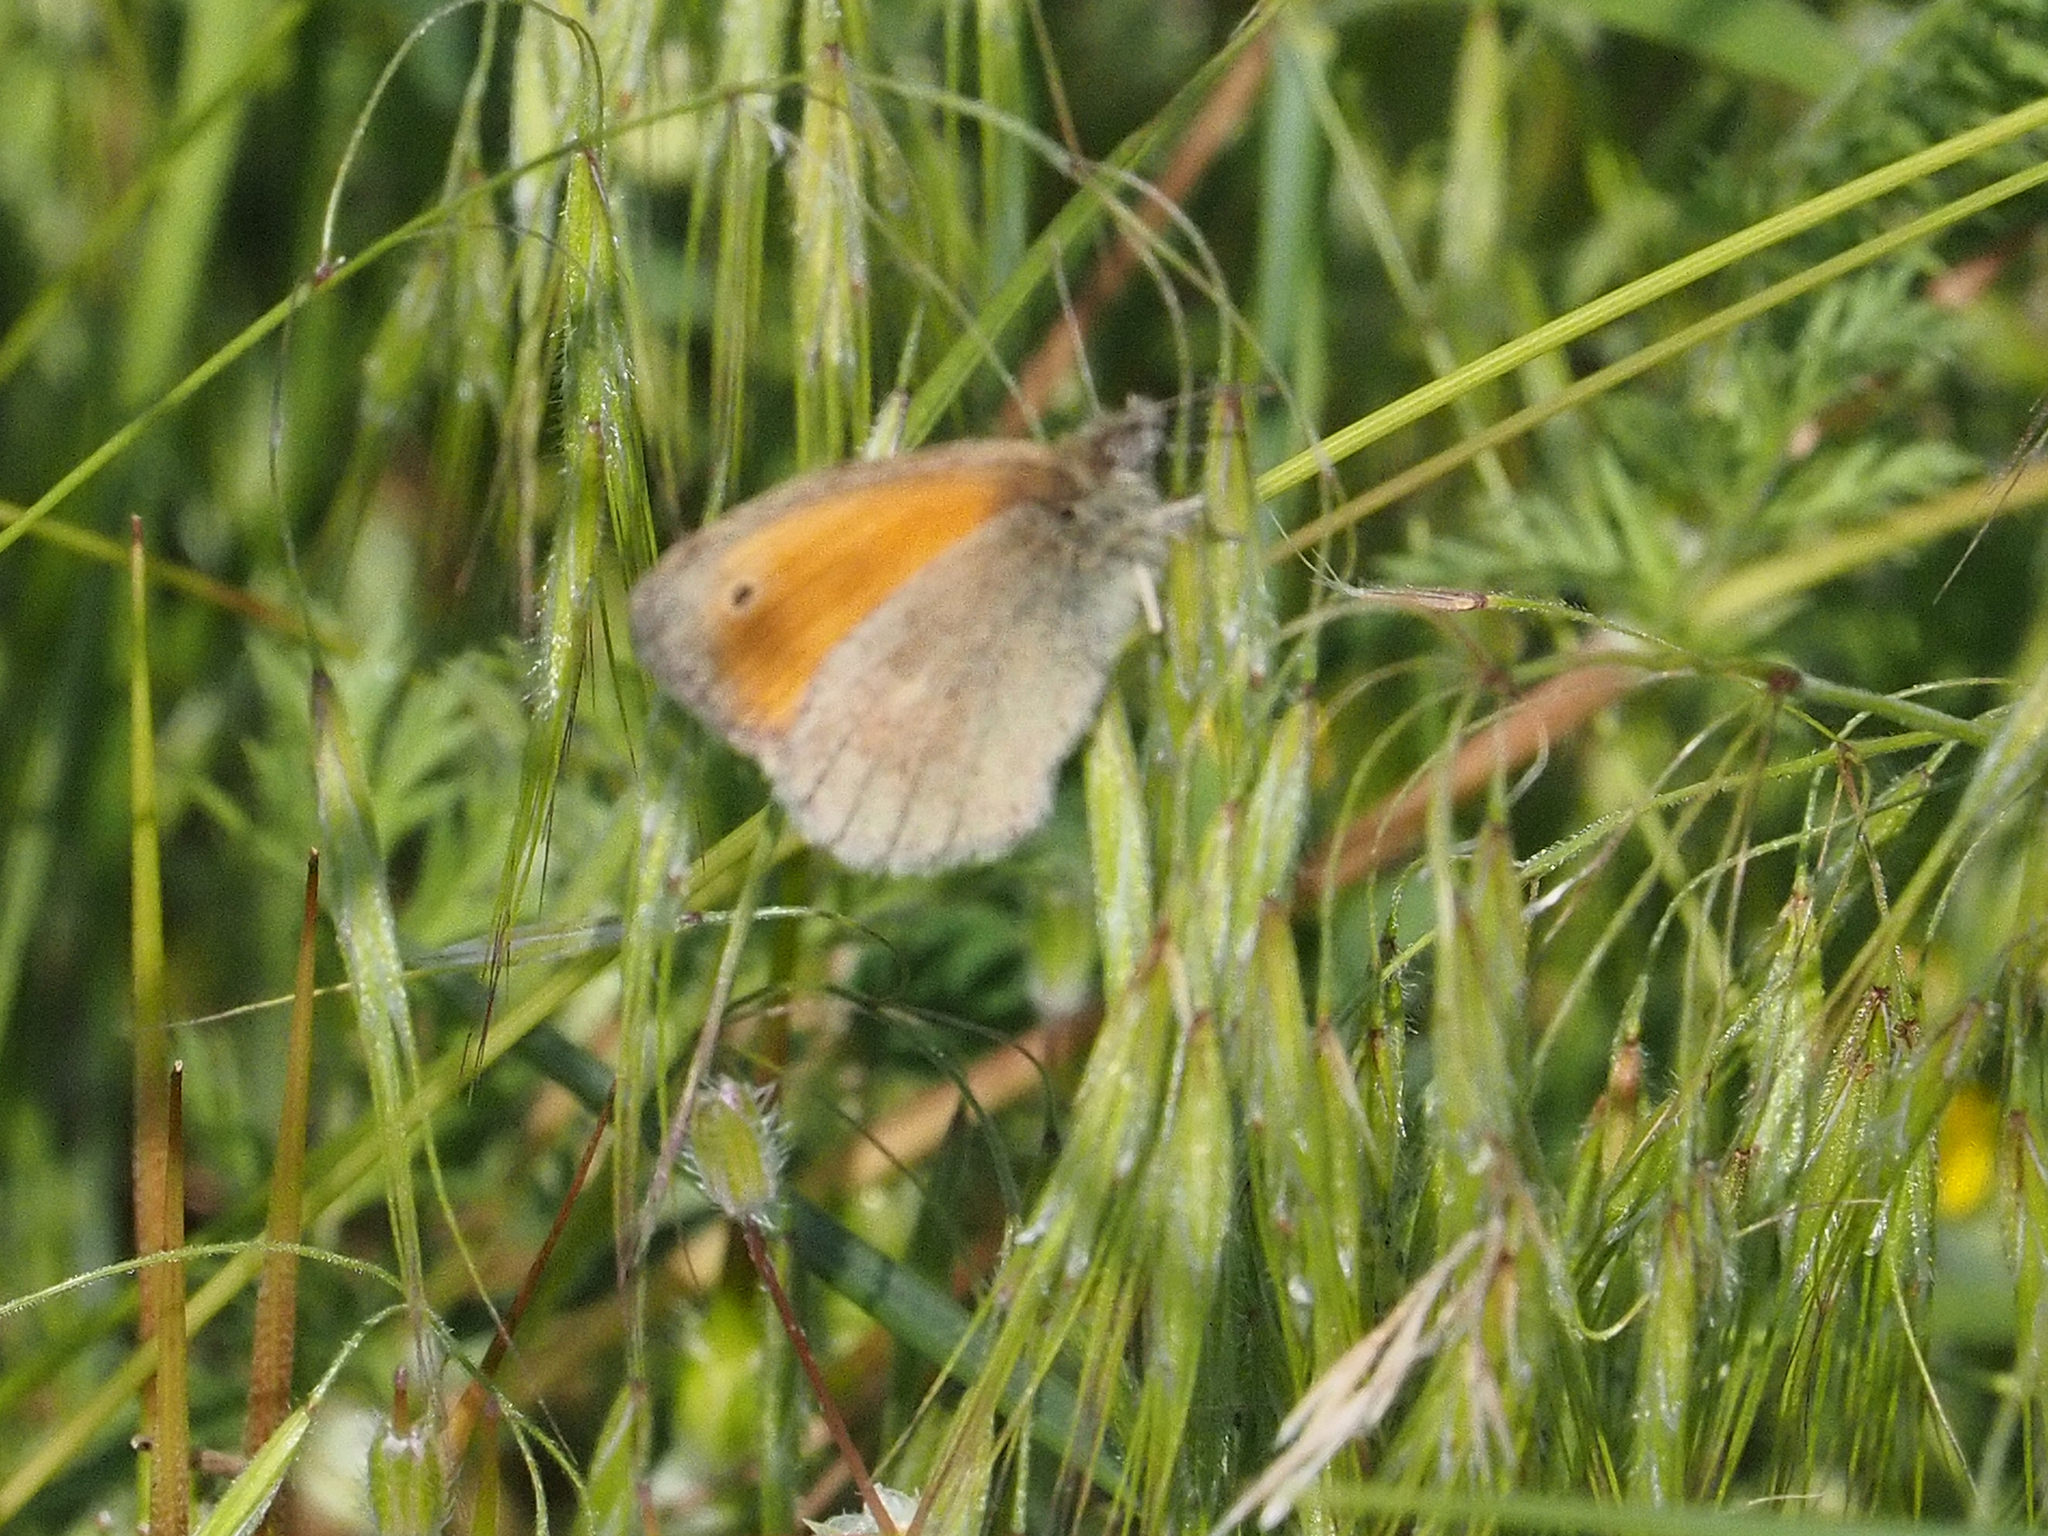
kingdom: Animalia
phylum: Arthropoda
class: Insecta
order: Lepidoptera
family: Nymphalidae
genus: Coenonympha
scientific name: Coenonympha pamphilus
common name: Small heath
